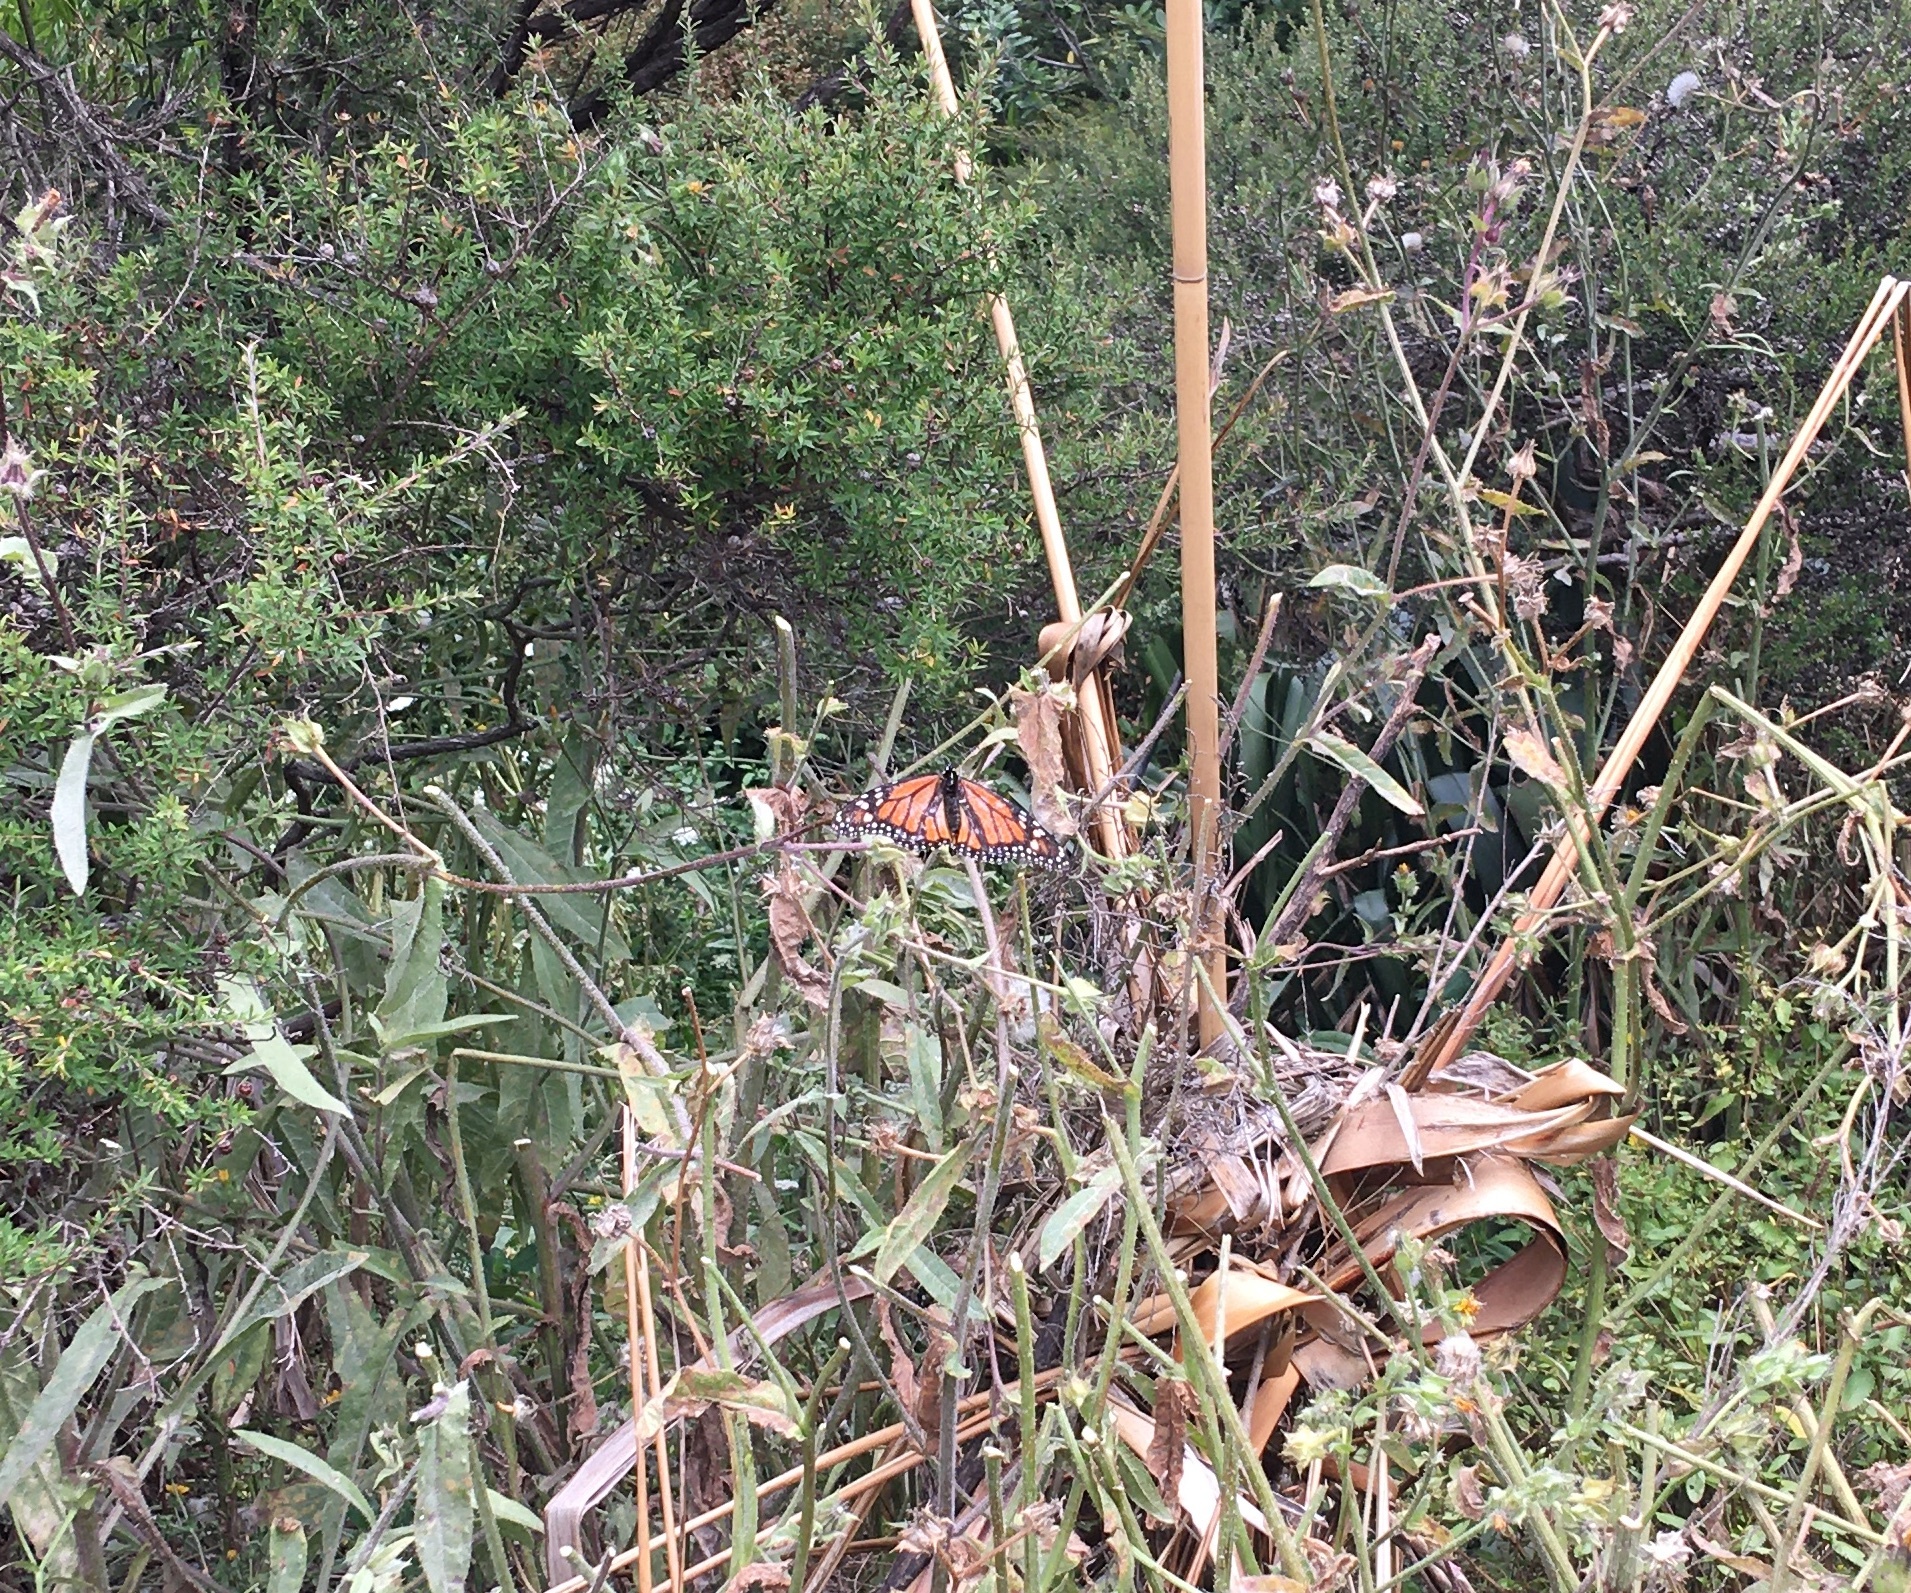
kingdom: Animalia
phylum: Arthropoda
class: Insecta
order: Lepidoptera
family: Nymphalidae
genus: Danaus
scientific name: Danaus plexippus
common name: Monarch
